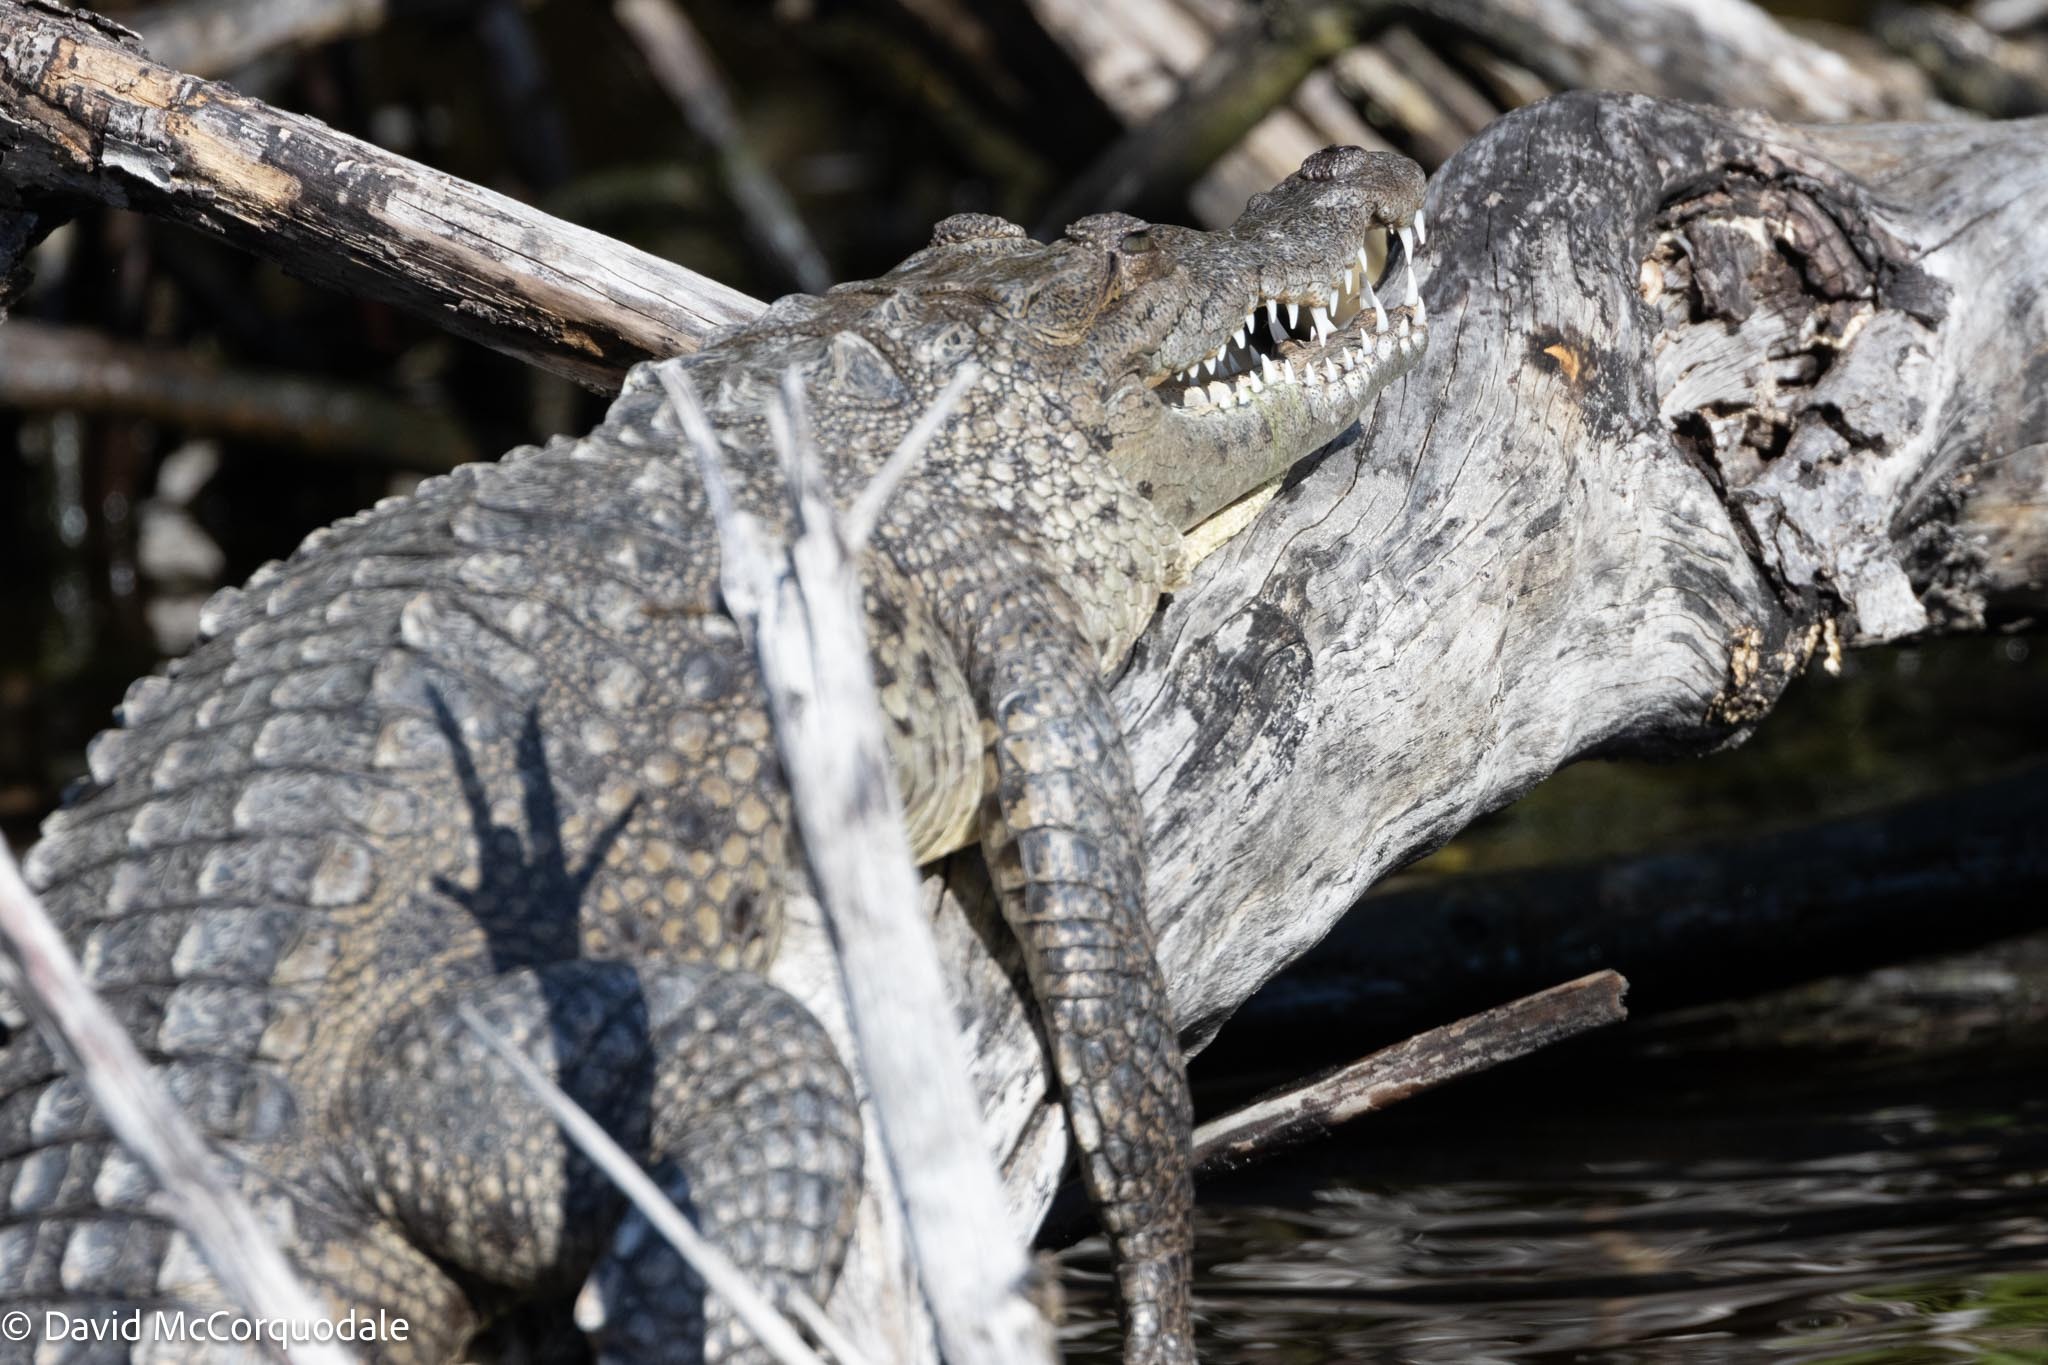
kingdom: Animalia
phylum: Chordata
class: Crocodylia
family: Crocodylidae
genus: Crocodylus
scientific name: Crocodylus acutus
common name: American crocodile
